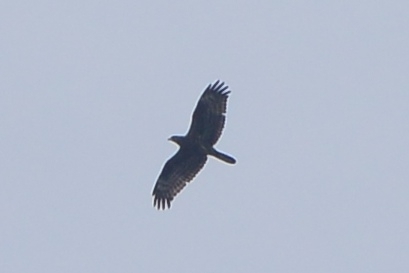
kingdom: Animalia
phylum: Chordata
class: Aves
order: Accipitriformes
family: Accipitridae
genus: Pernis
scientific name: Pernis apivorus
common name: European honey buzzard
